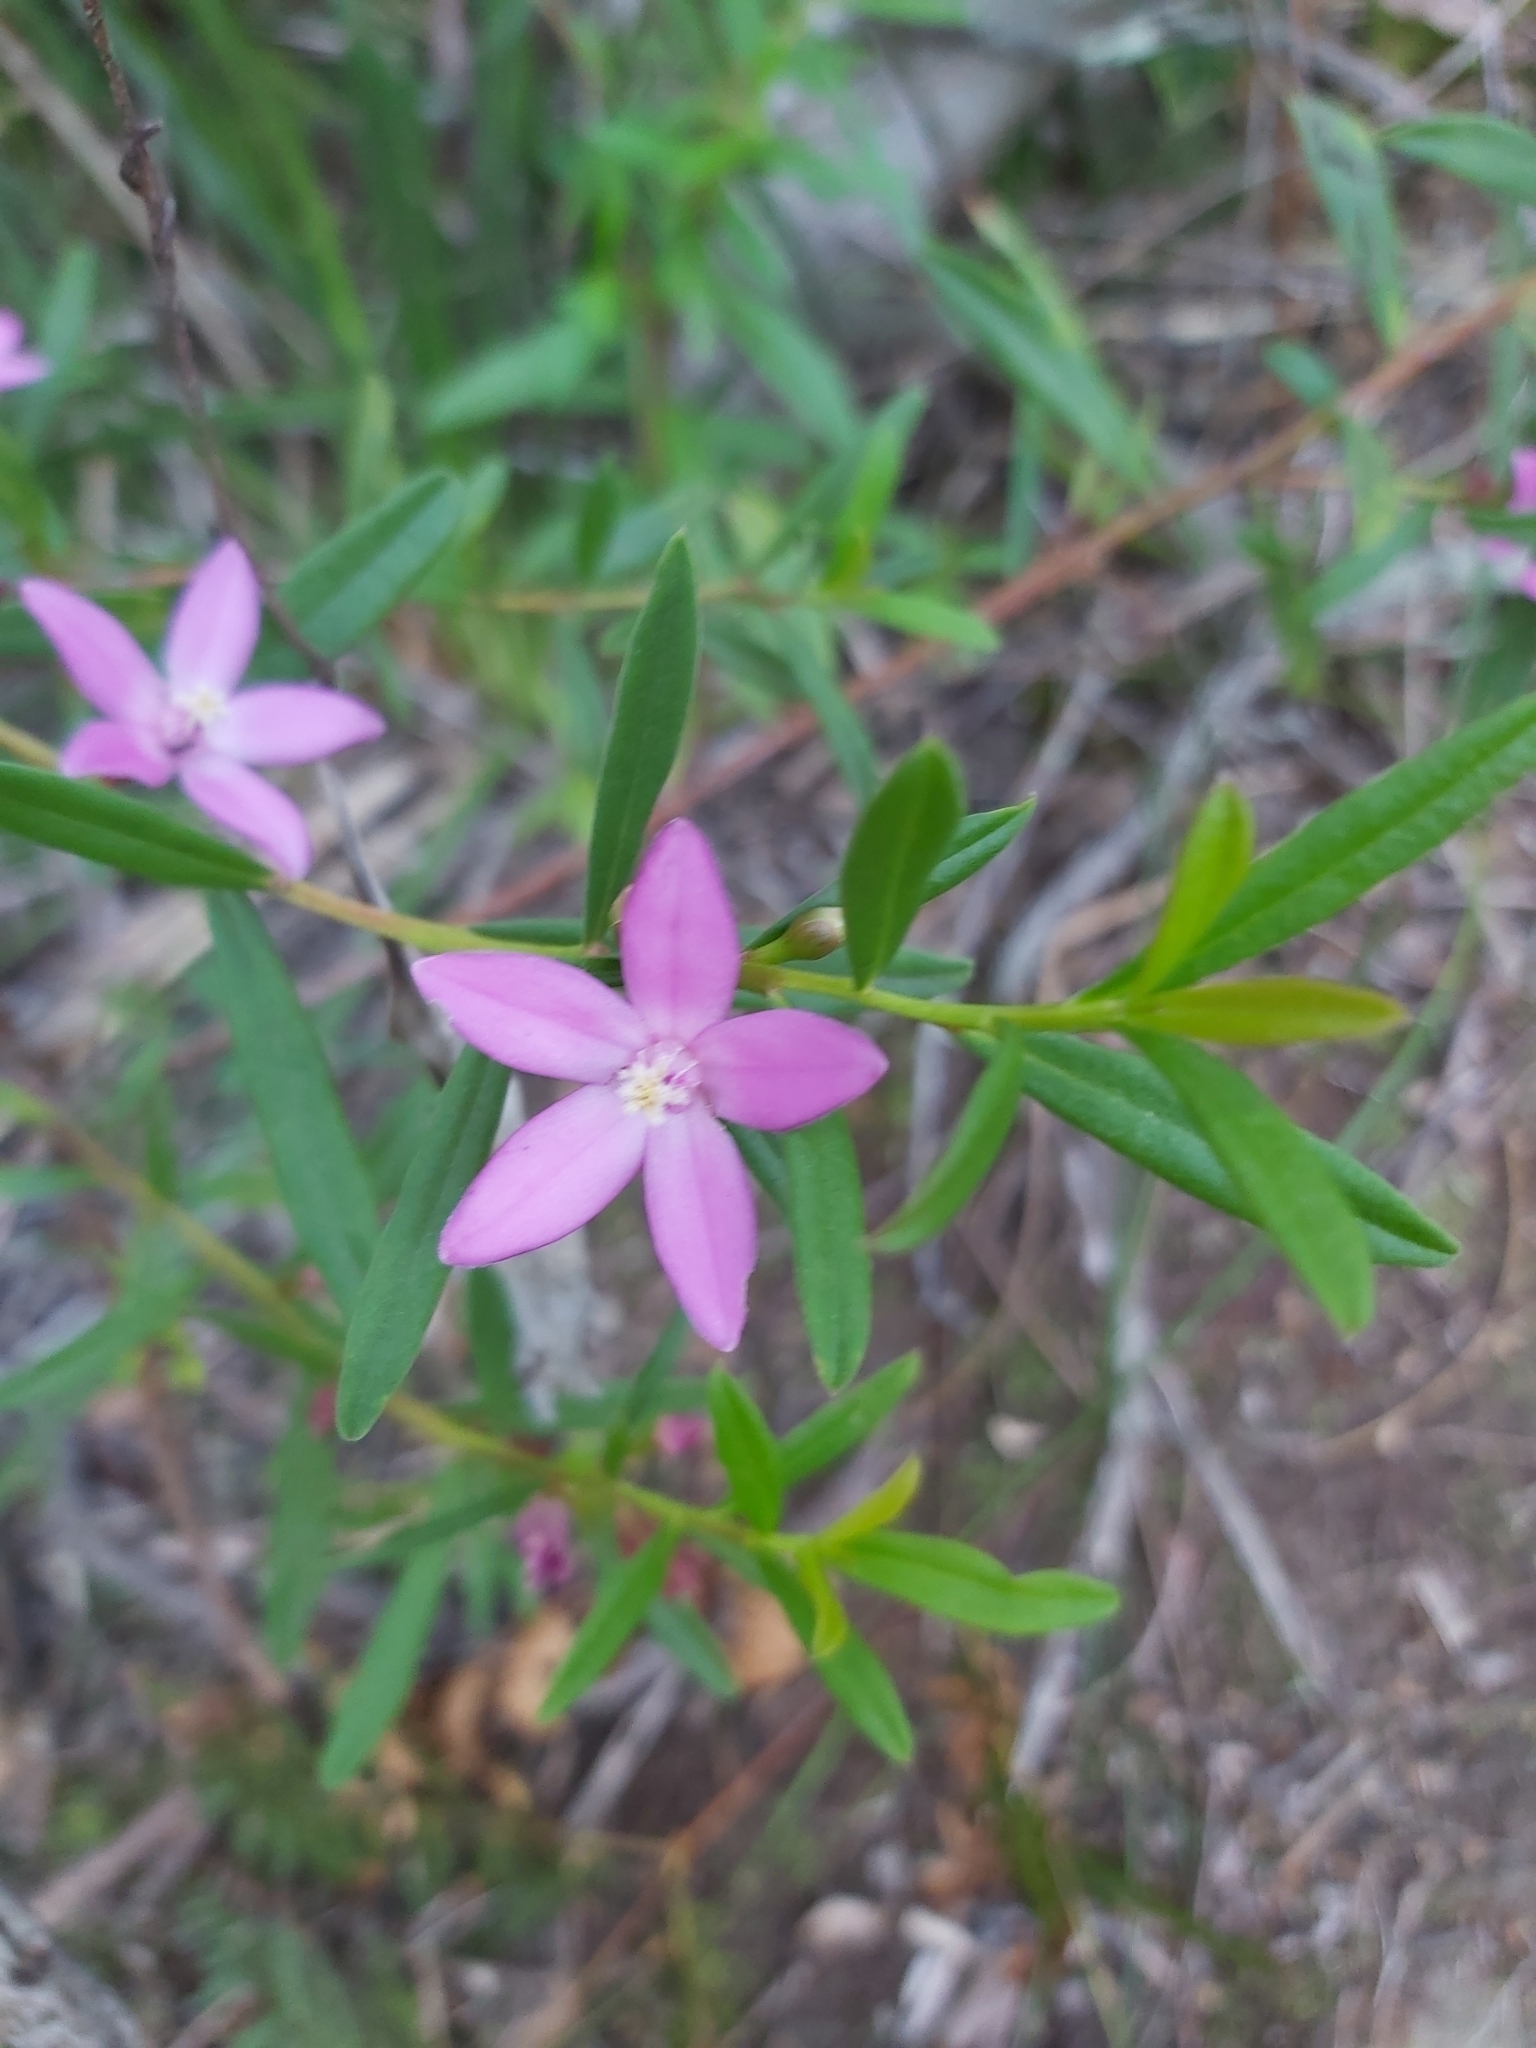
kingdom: Plantae
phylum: Tracheophyta
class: Magnoliopsida
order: Sapindales
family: Rutaceae
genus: Crowea
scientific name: Crowea saligna
